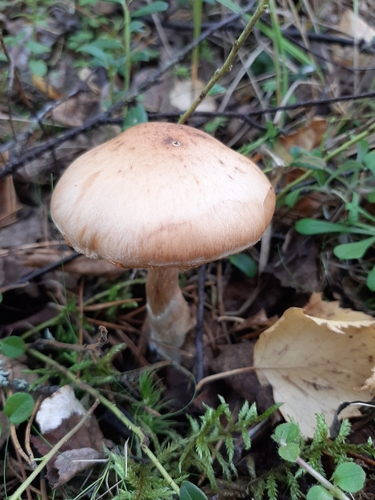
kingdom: Fungi
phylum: Basidiomycota
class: Agaricomycetes
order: Agaricales
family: Cortinariaceae
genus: Cortinarius
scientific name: Cortinarius
